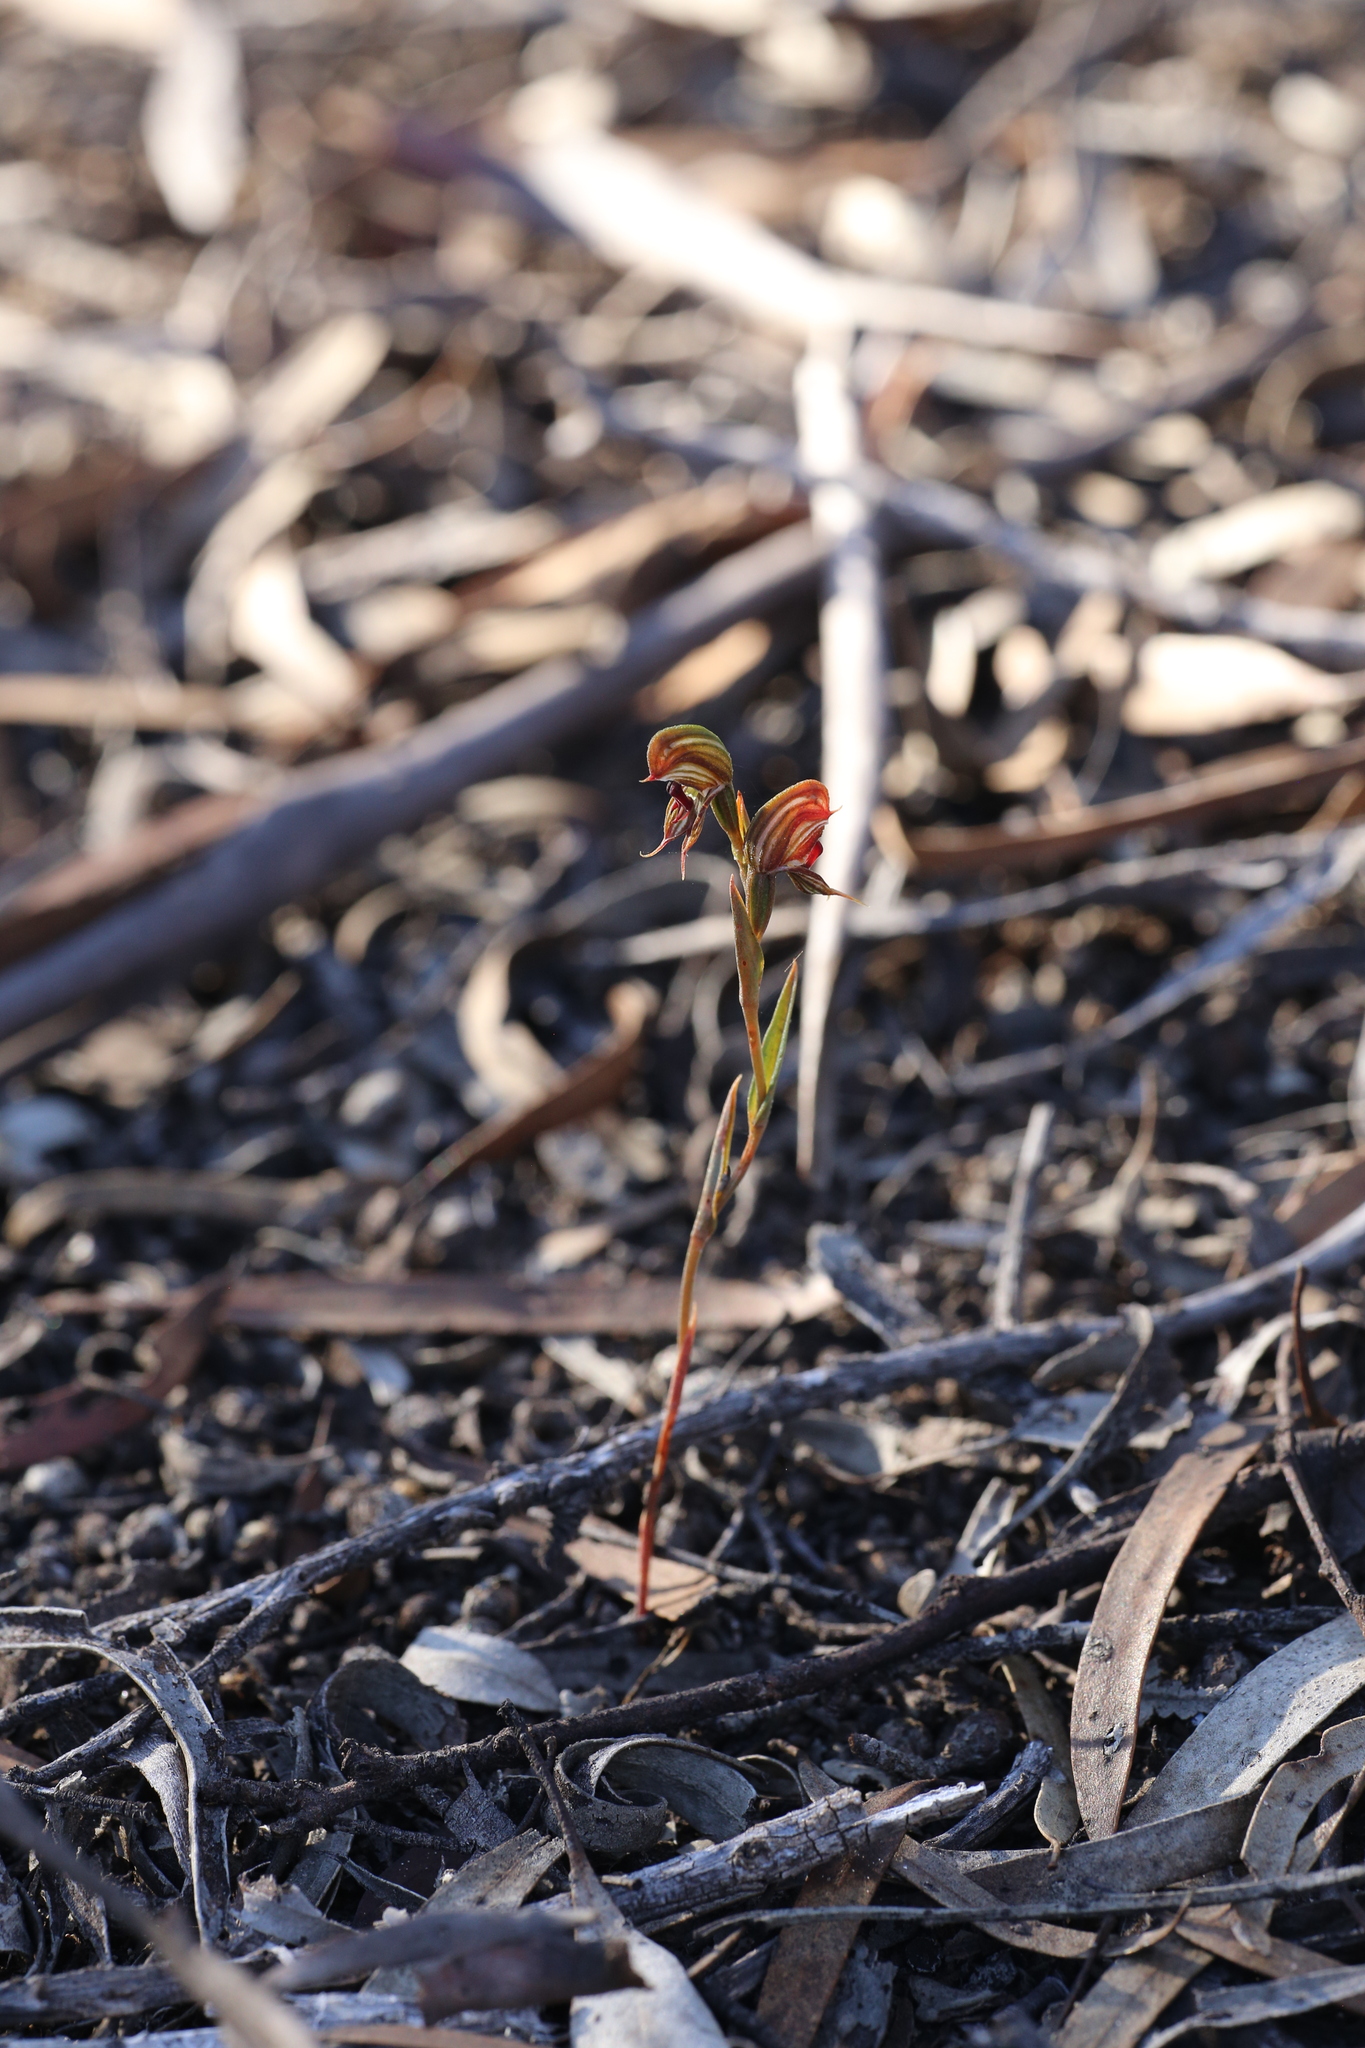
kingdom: Plantae
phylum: Tracheophyta
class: Liliopsida
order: Asparagales
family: Orchidaceae
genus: Pterostylis
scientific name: Pterostylis sargentii
